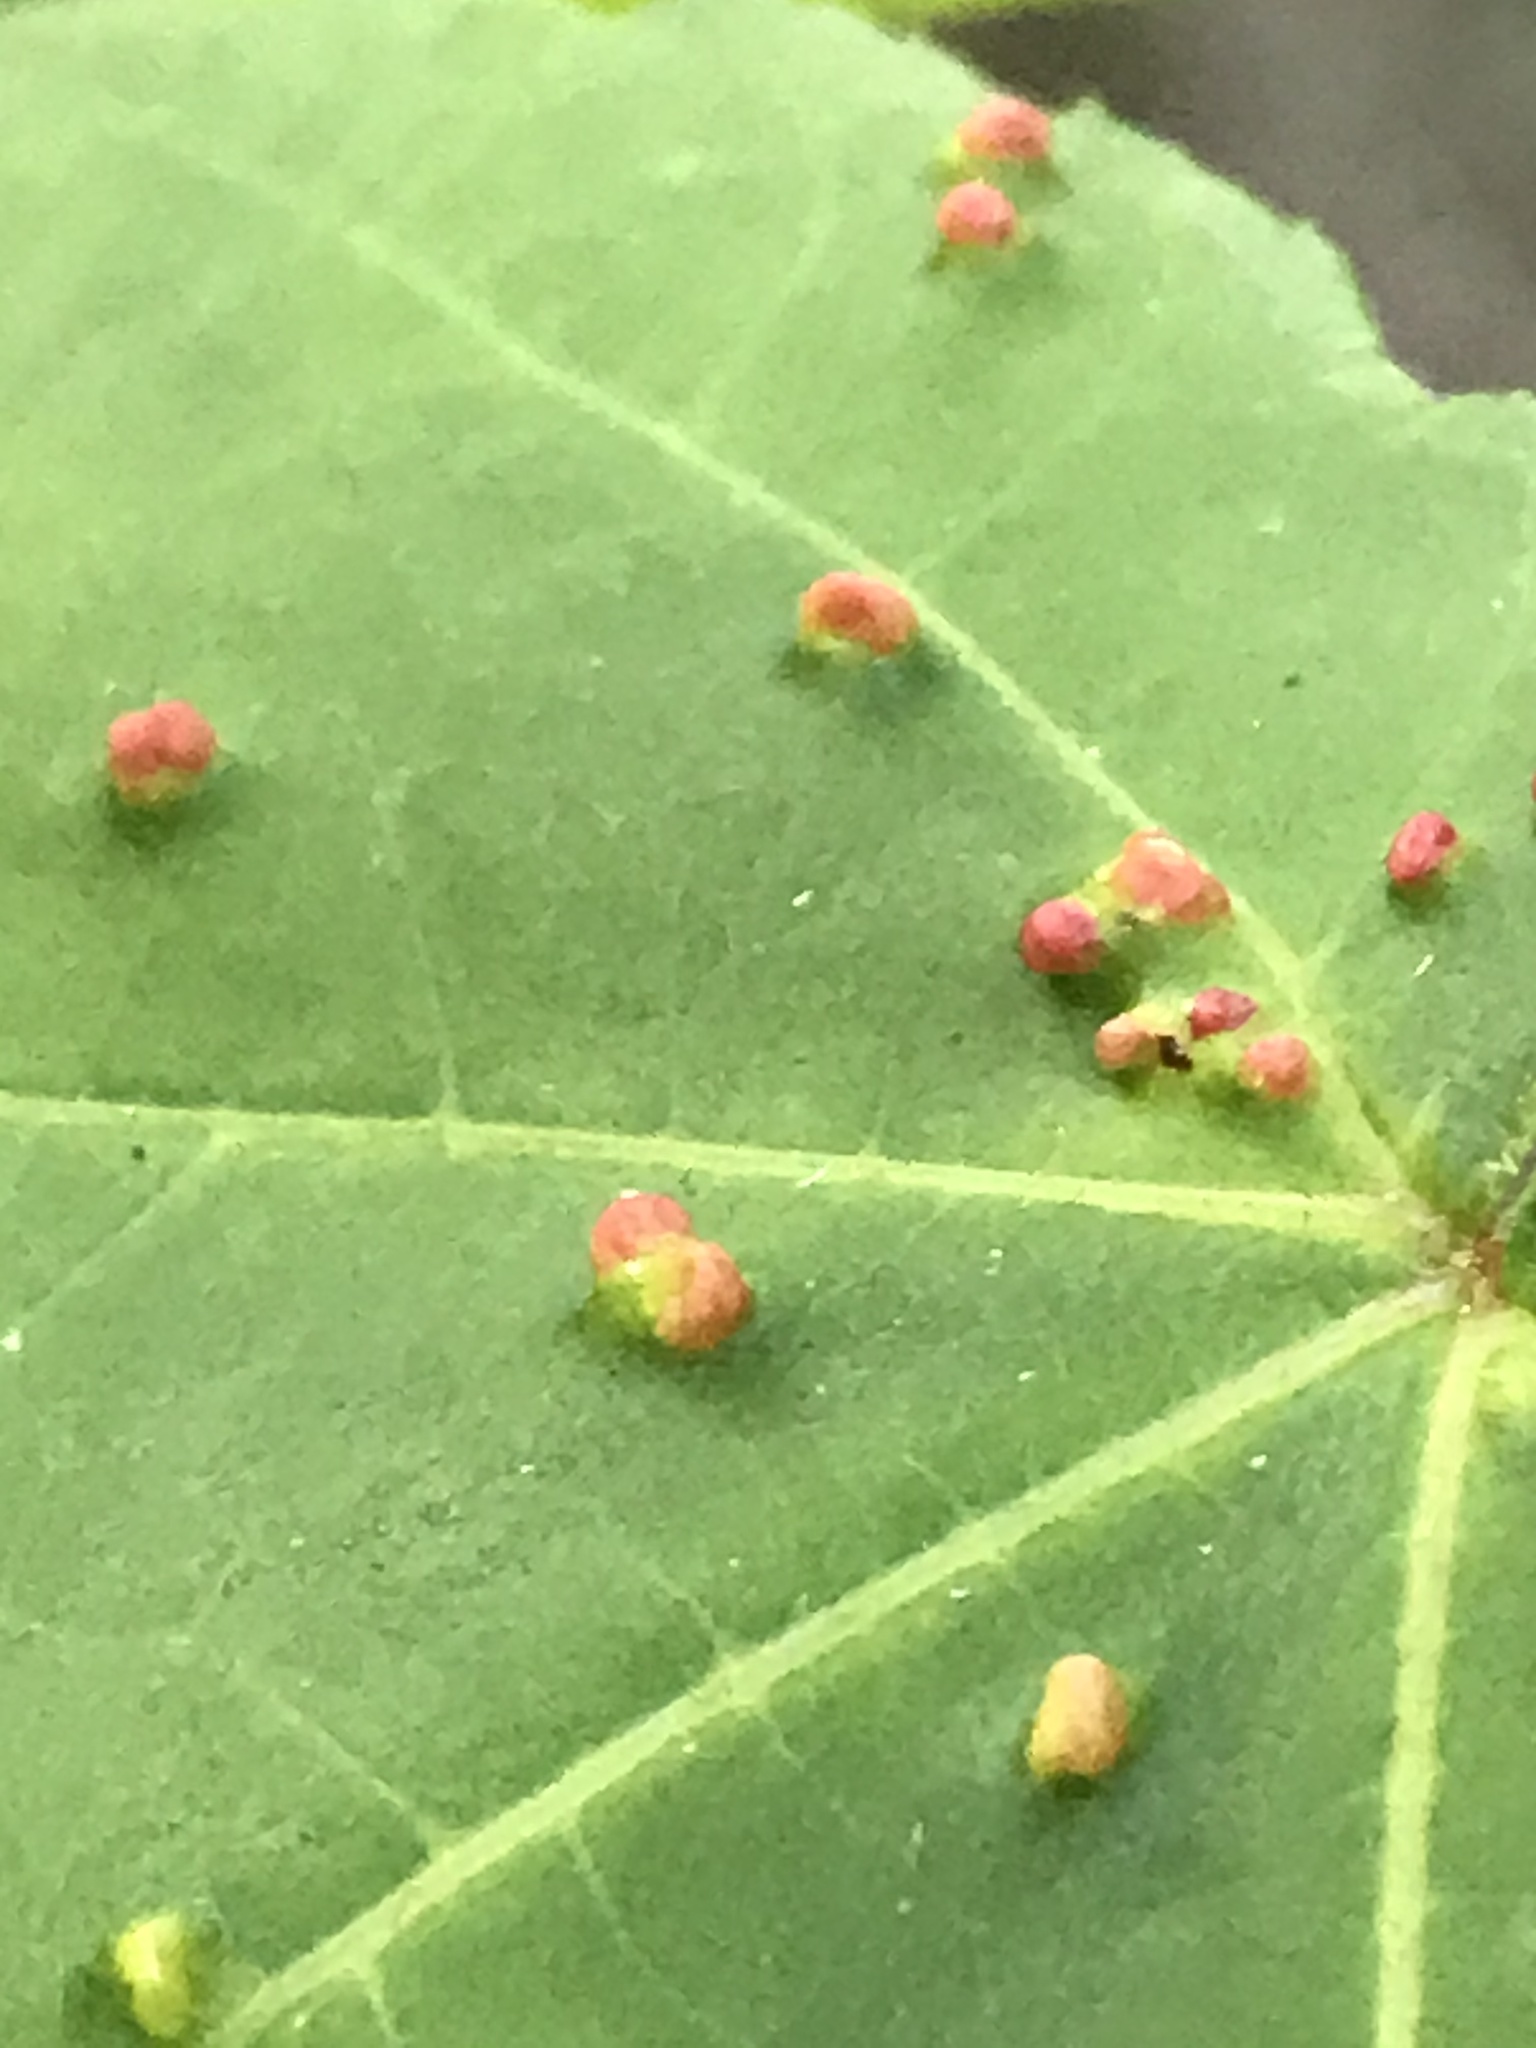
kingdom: Animalia
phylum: Arthropoda
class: Arachnida
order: Trombidiformes
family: Eriophyidae
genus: Vasates
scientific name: Vasates quadripedes
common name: Maple bladder gall mite
